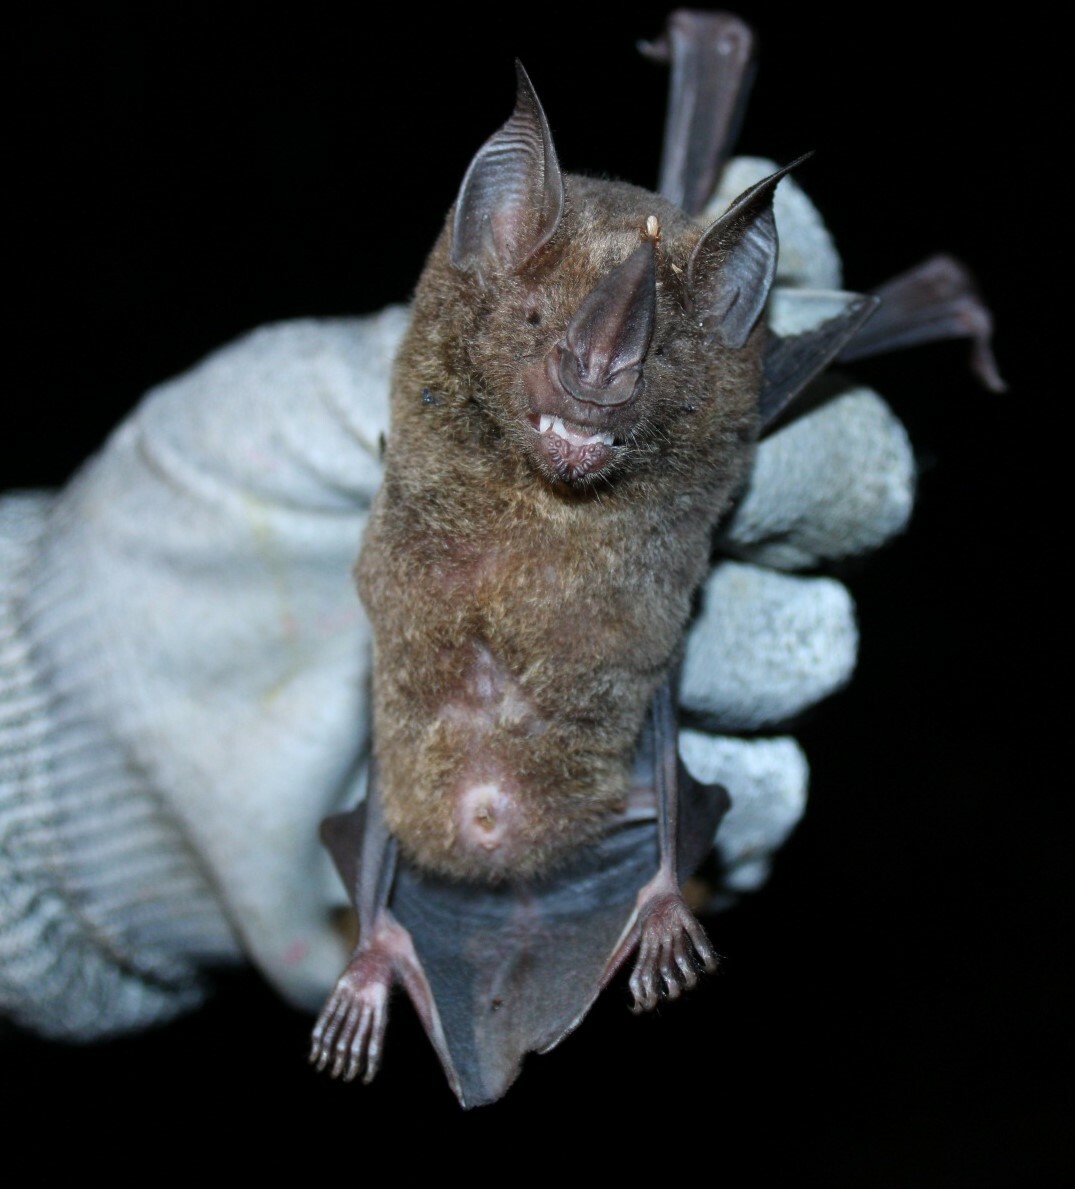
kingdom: Animalia
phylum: Chordata
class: Mammalia
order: Chiroptera
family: Phyllostomidae
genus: Phyllostomus
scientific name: Phyllostomus elongatus
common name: Lesser spear-nosed bat
